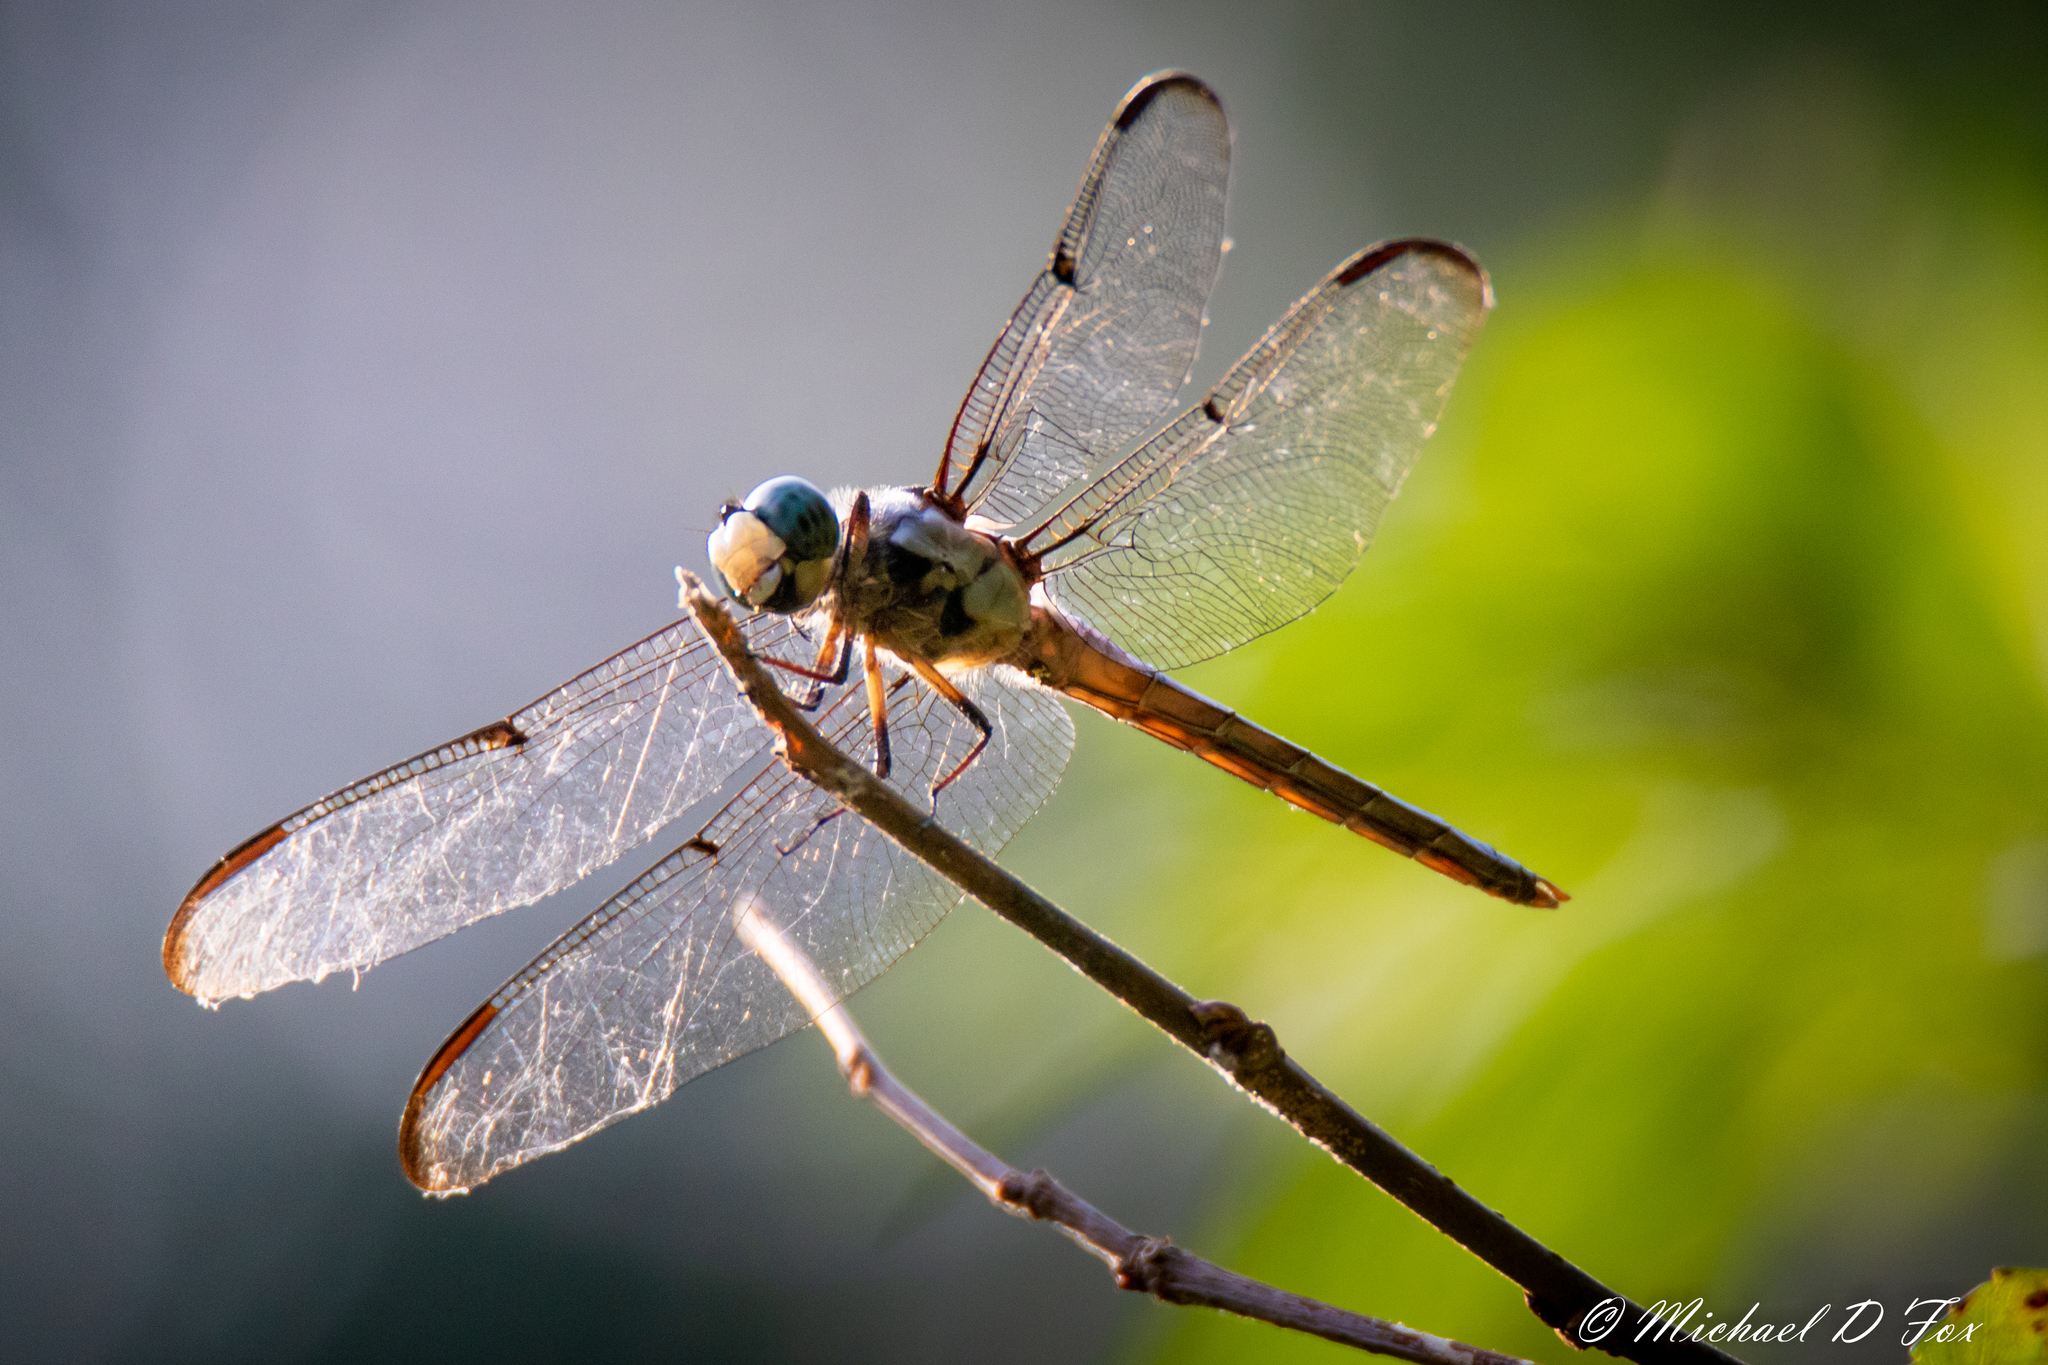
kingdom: Animalia
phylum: Arthropoda
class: Insecta
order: Odonata
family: Libellulidae
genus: Libellula
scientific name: Libellula vibrans
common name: Great blue skimmer
